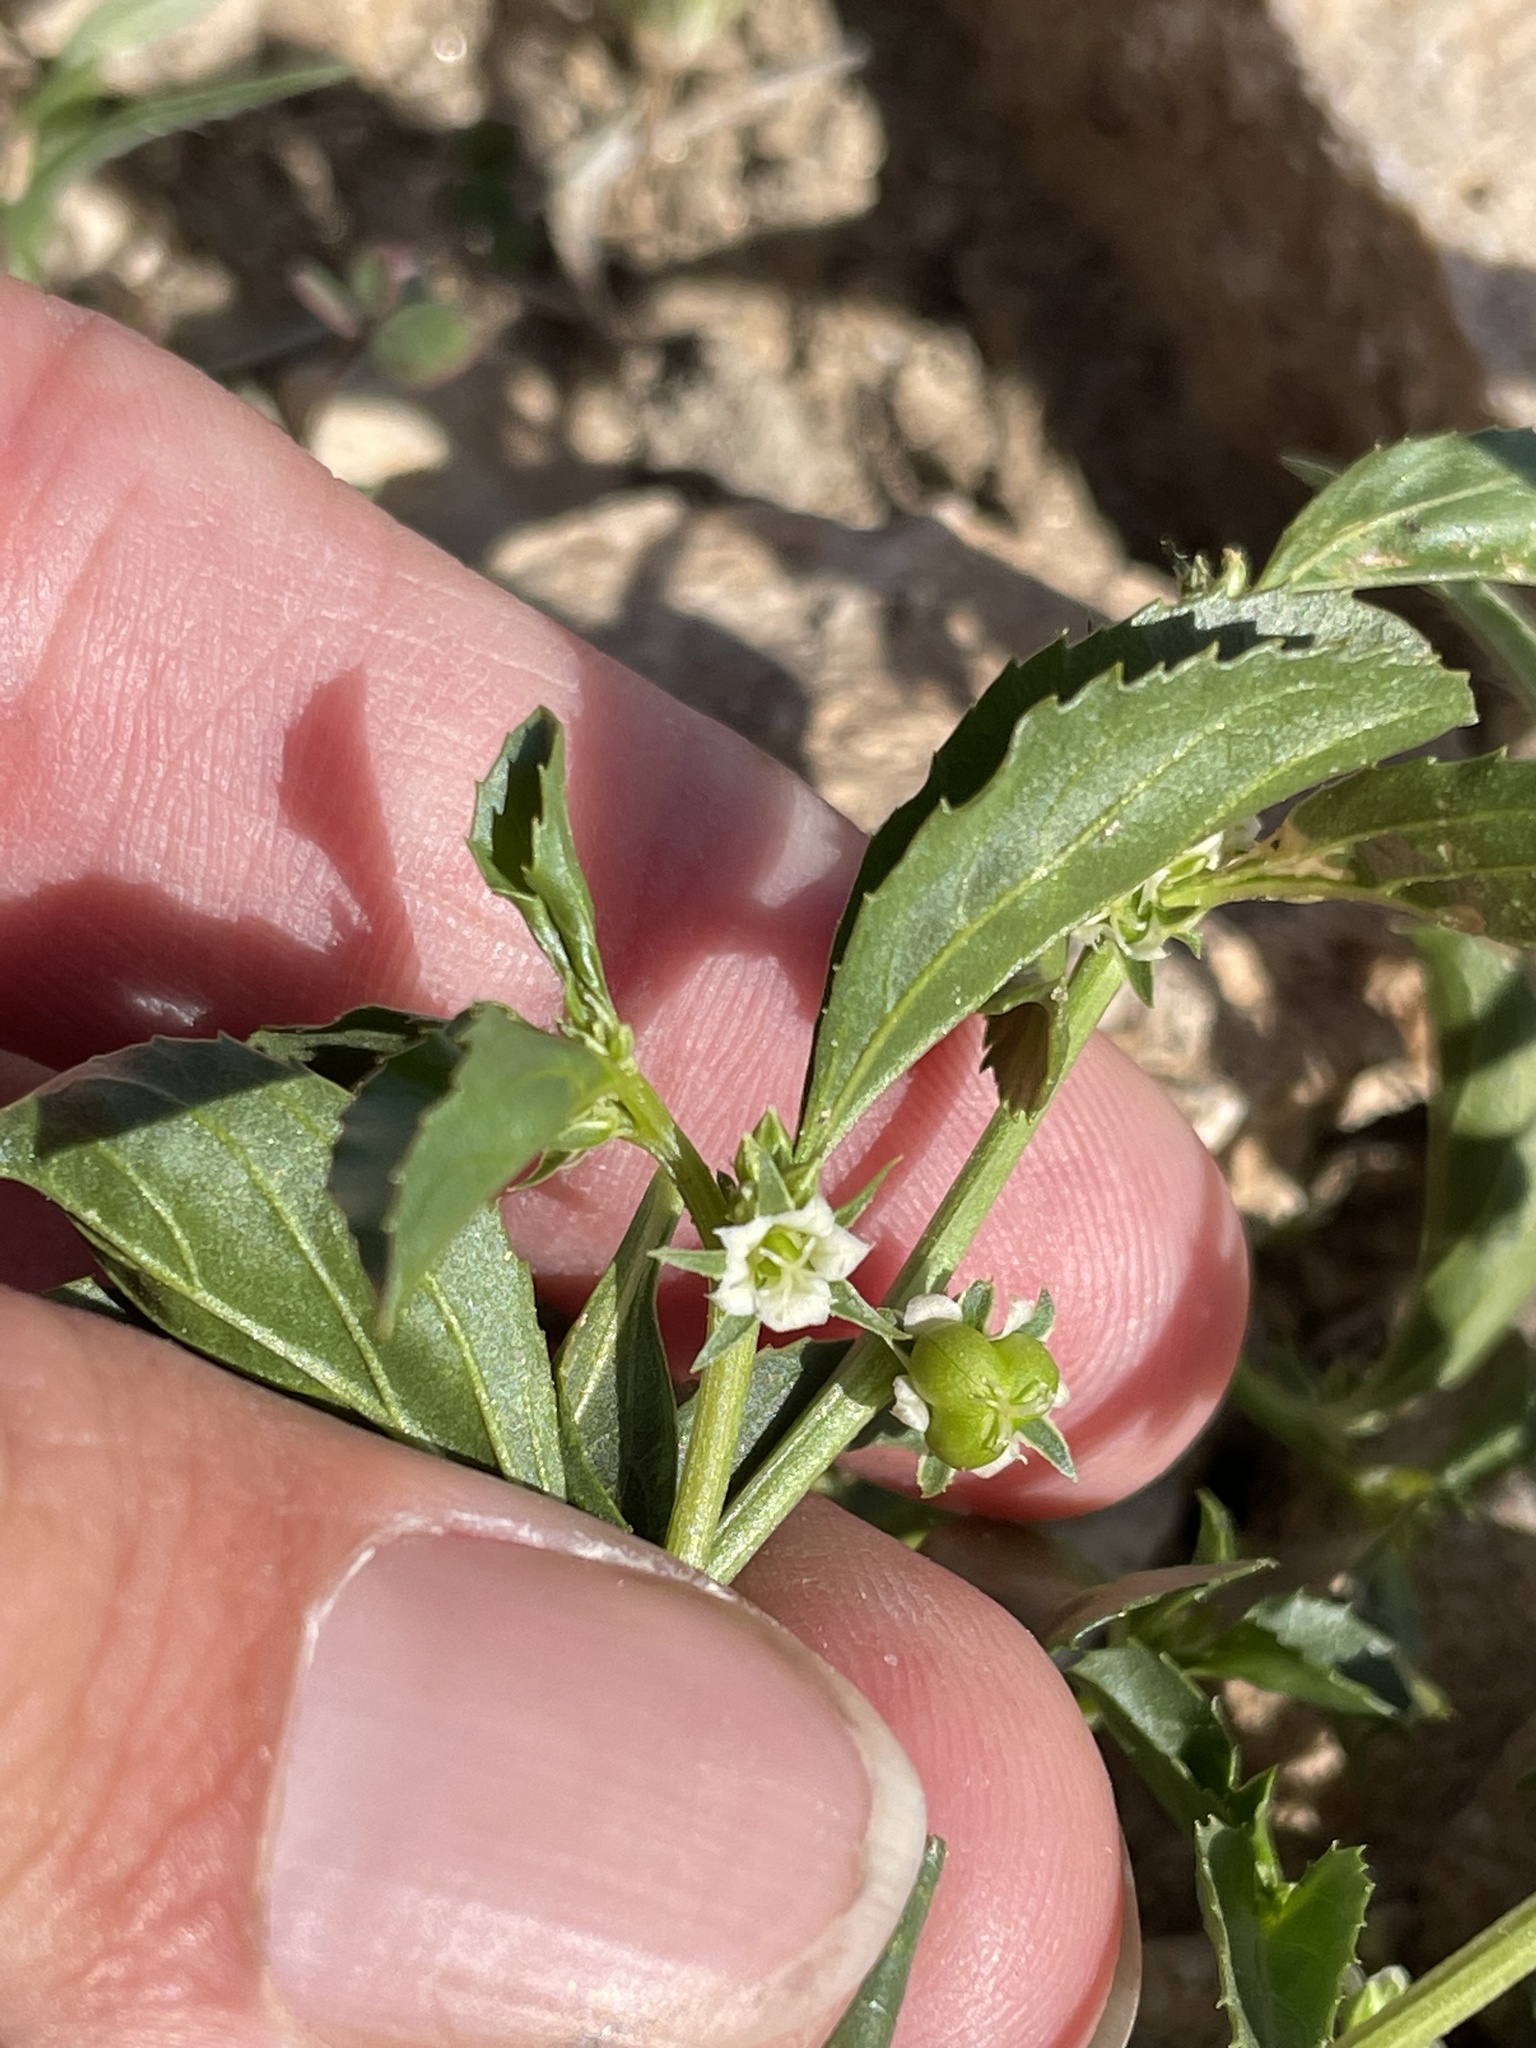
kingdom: Plantae
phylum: Tracheophyta
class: Magnoliopsida
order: Malpighiales
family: Euphorbiaceae
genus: Ditaxis
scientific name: Ditaxis serrata
